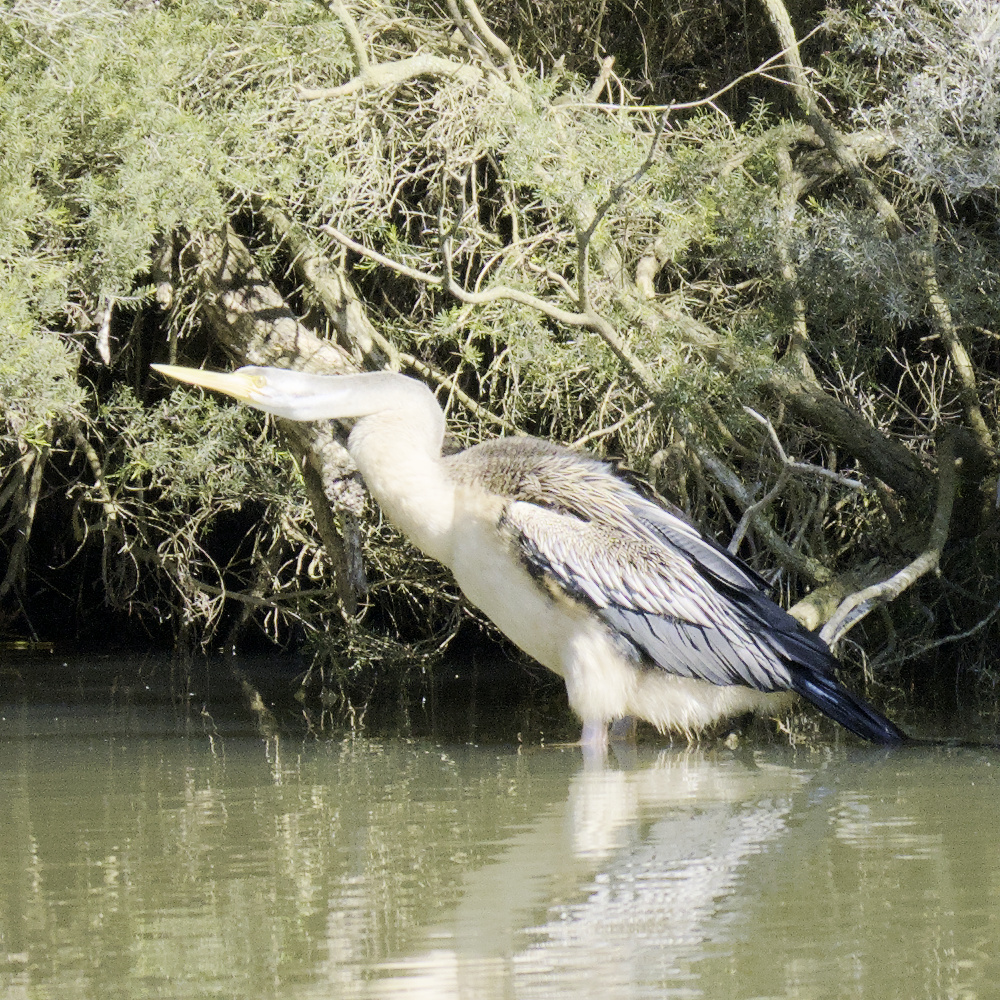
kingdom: Animalia
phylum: Chordata
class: Aves
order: Suliformes
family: Anhingidae
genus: Anhinga
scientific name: Anhinga novaehollandiae
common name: Australasian darter
